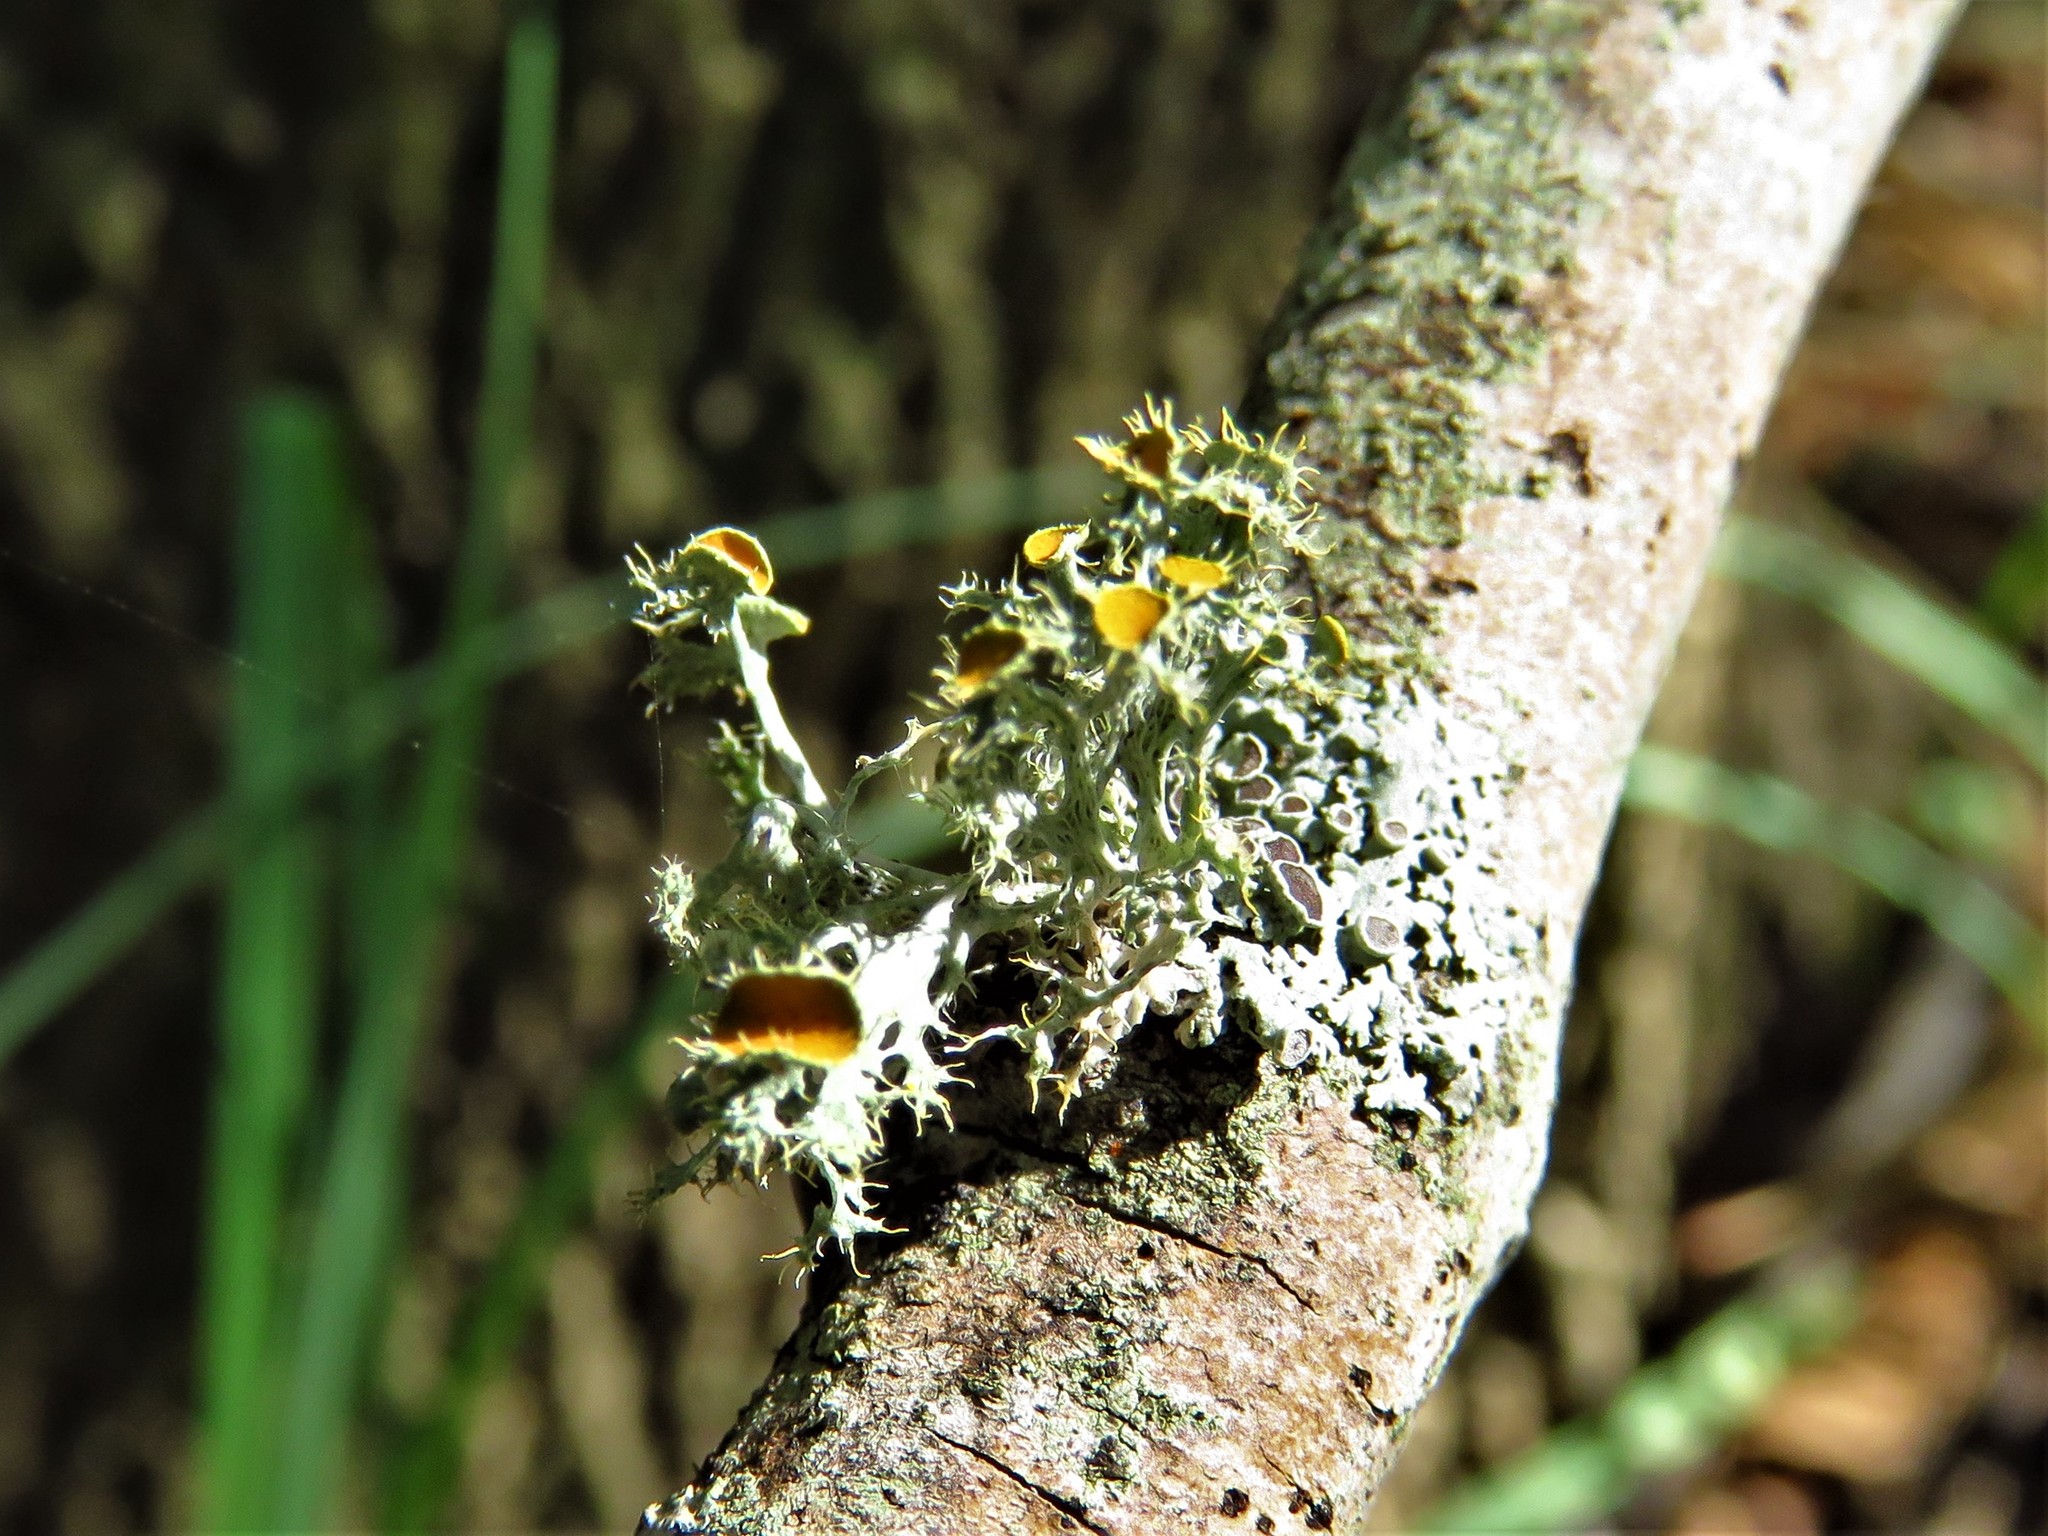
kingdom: Fungi
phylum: Ascomycota
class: Lecanoromycetes
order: Teloschistales
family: Teloschistaceae
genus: Niorma
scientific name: Niorma chrysophthalma
